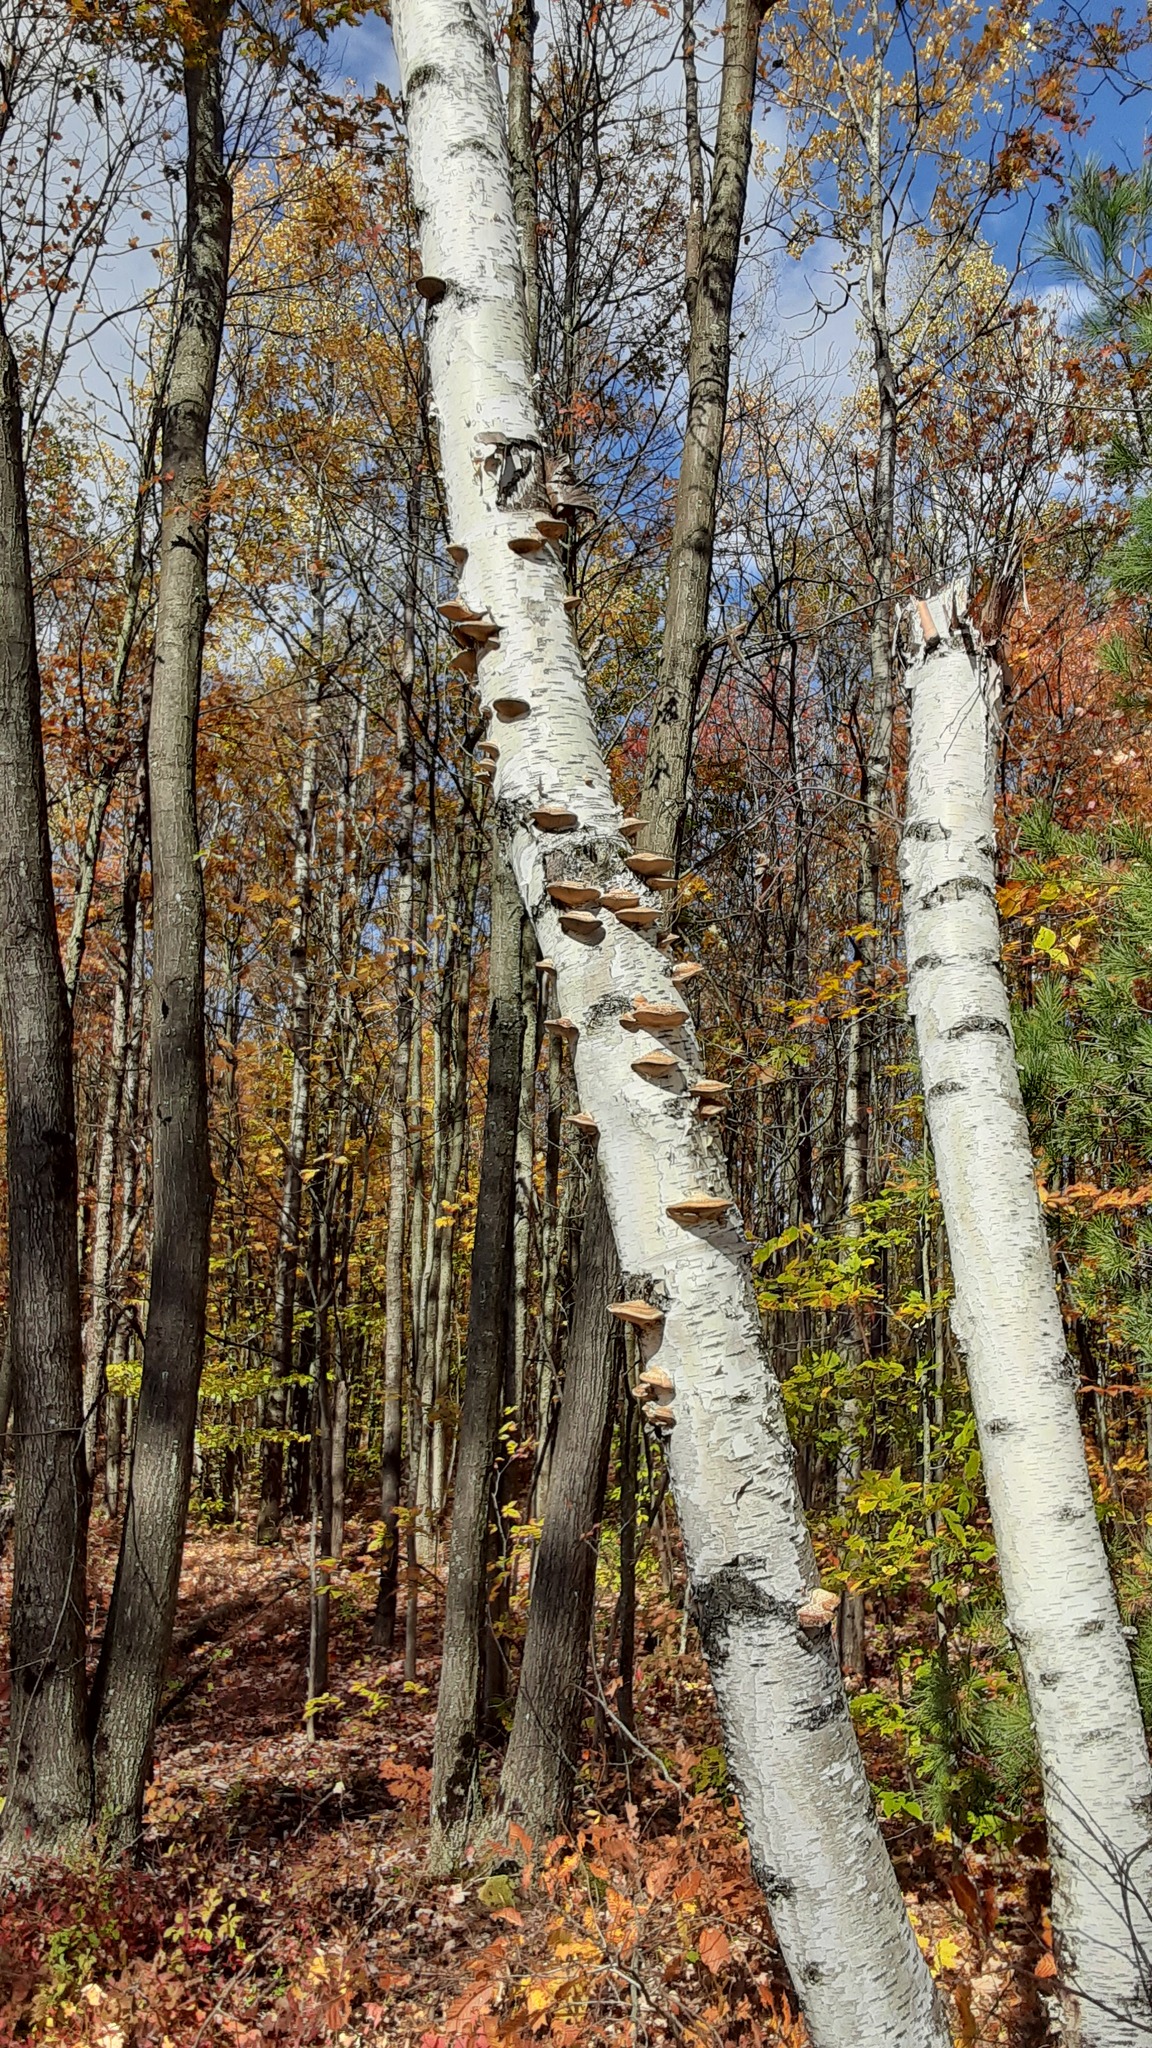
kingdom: Fungi
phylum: Basidiomycota
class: Agaricomycetes
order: Polyporales
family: Polyporaceae
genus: Daedaleopsis
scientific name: Daedaleopsis confragosa
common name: Blushing bracket
